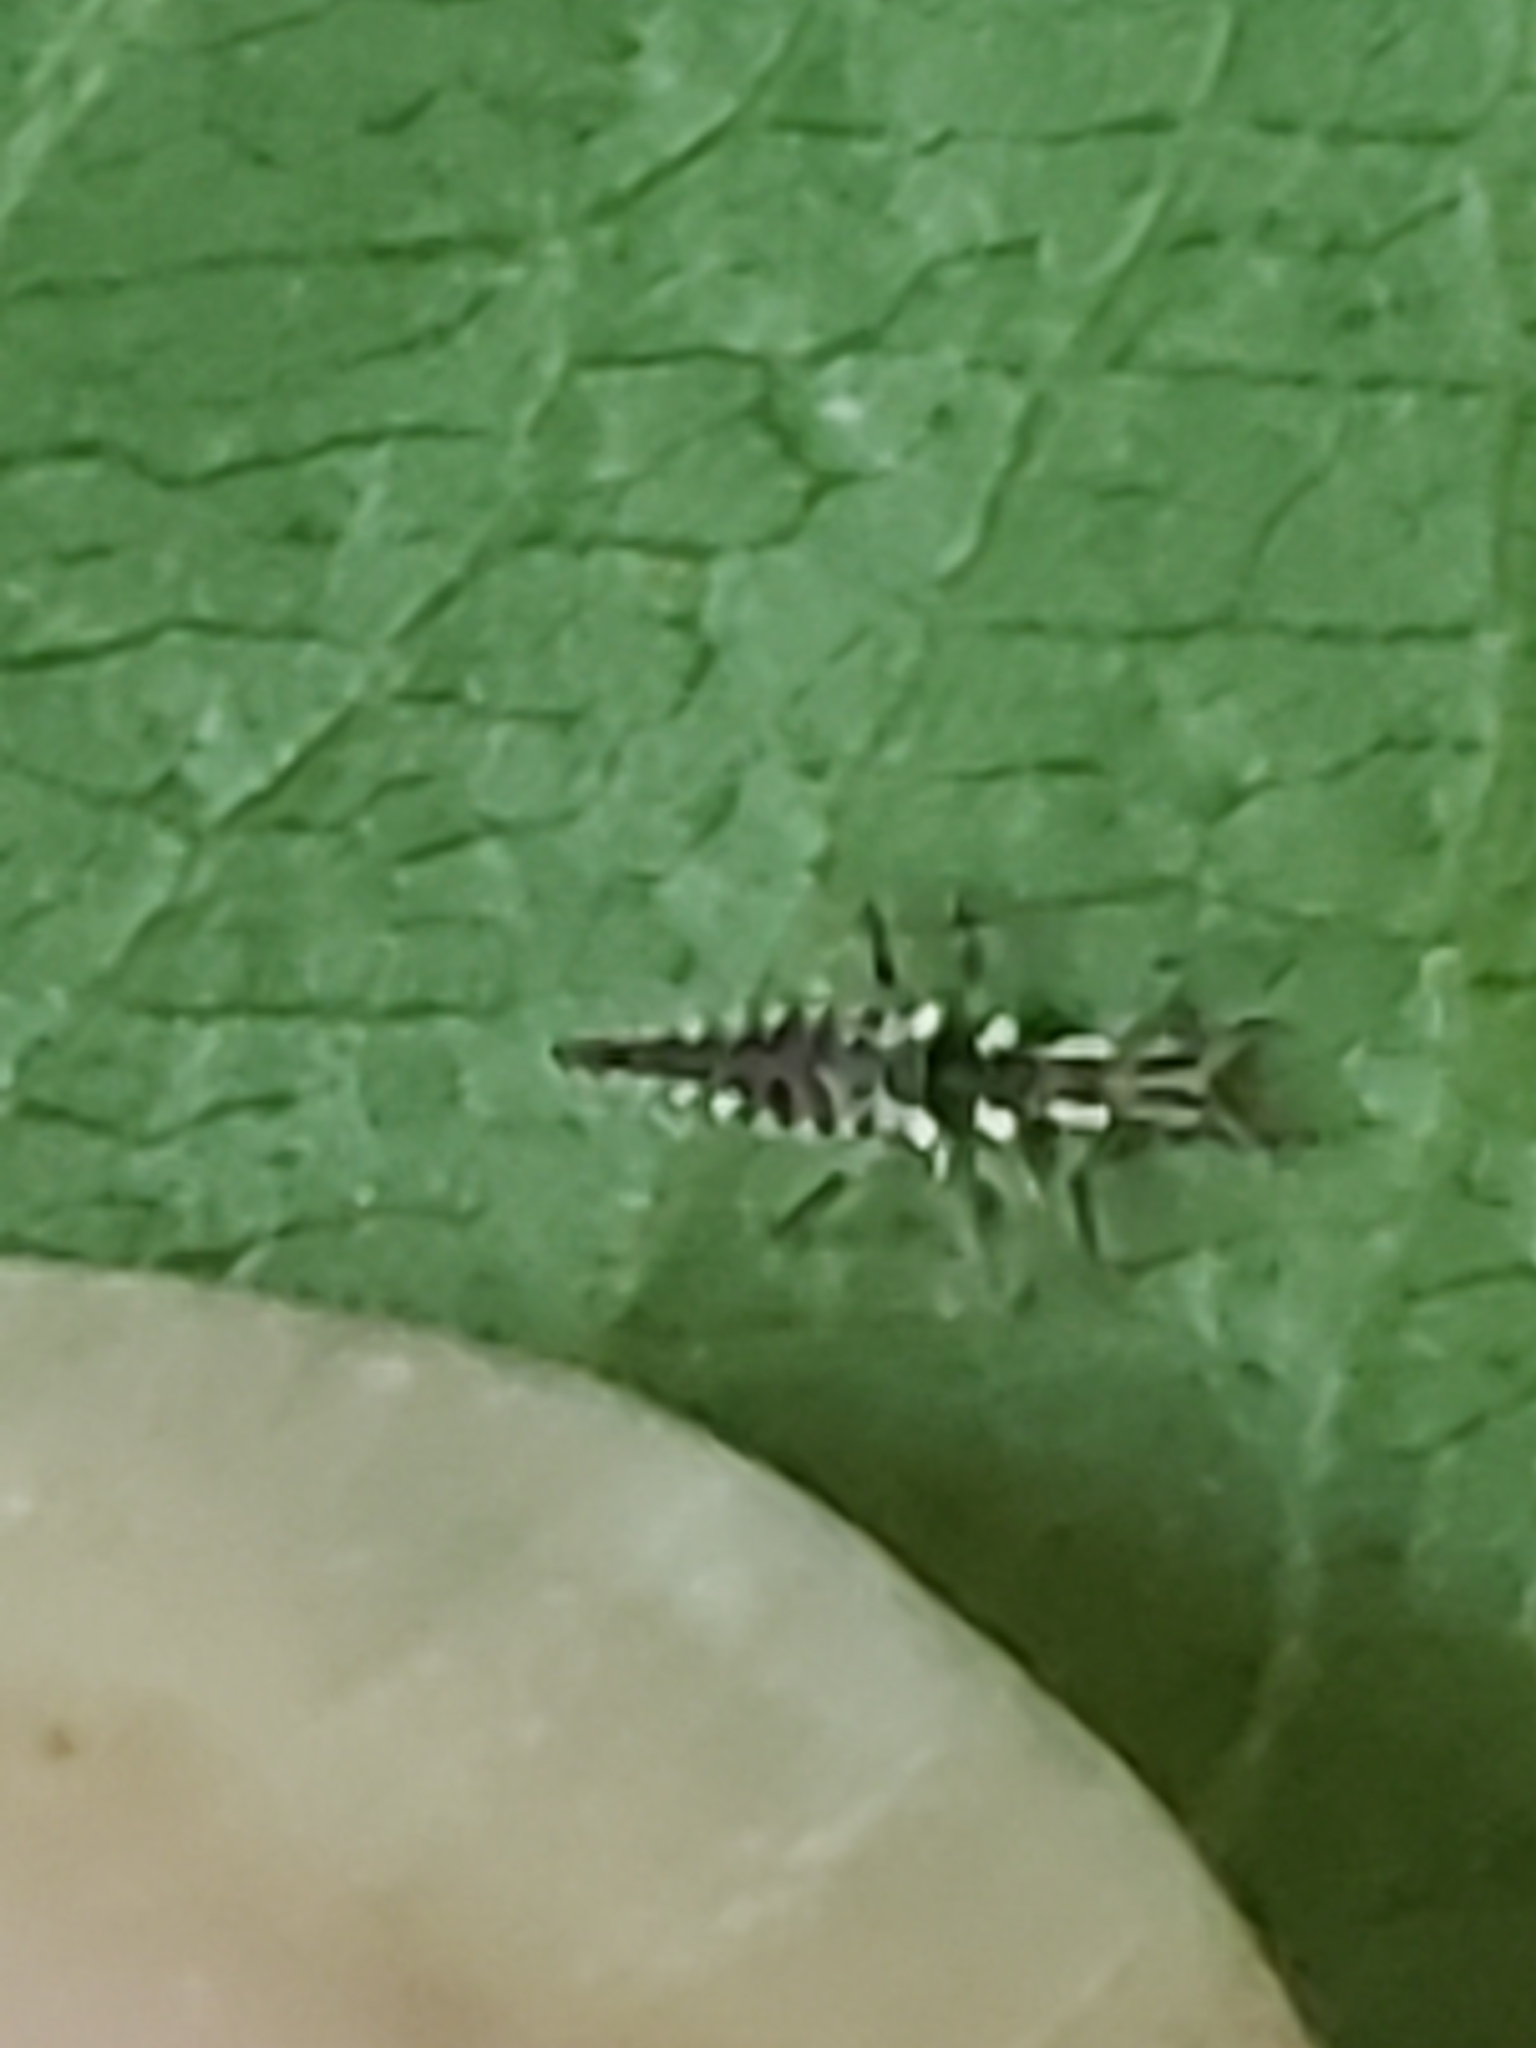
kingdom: Animalia
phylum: Arthropoda
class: Insecta
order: Neuroptera
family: Chrysopidae
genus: Chrysoperla
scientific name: Chrysoperla rufilabris
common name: Red-lipped green lacewing
